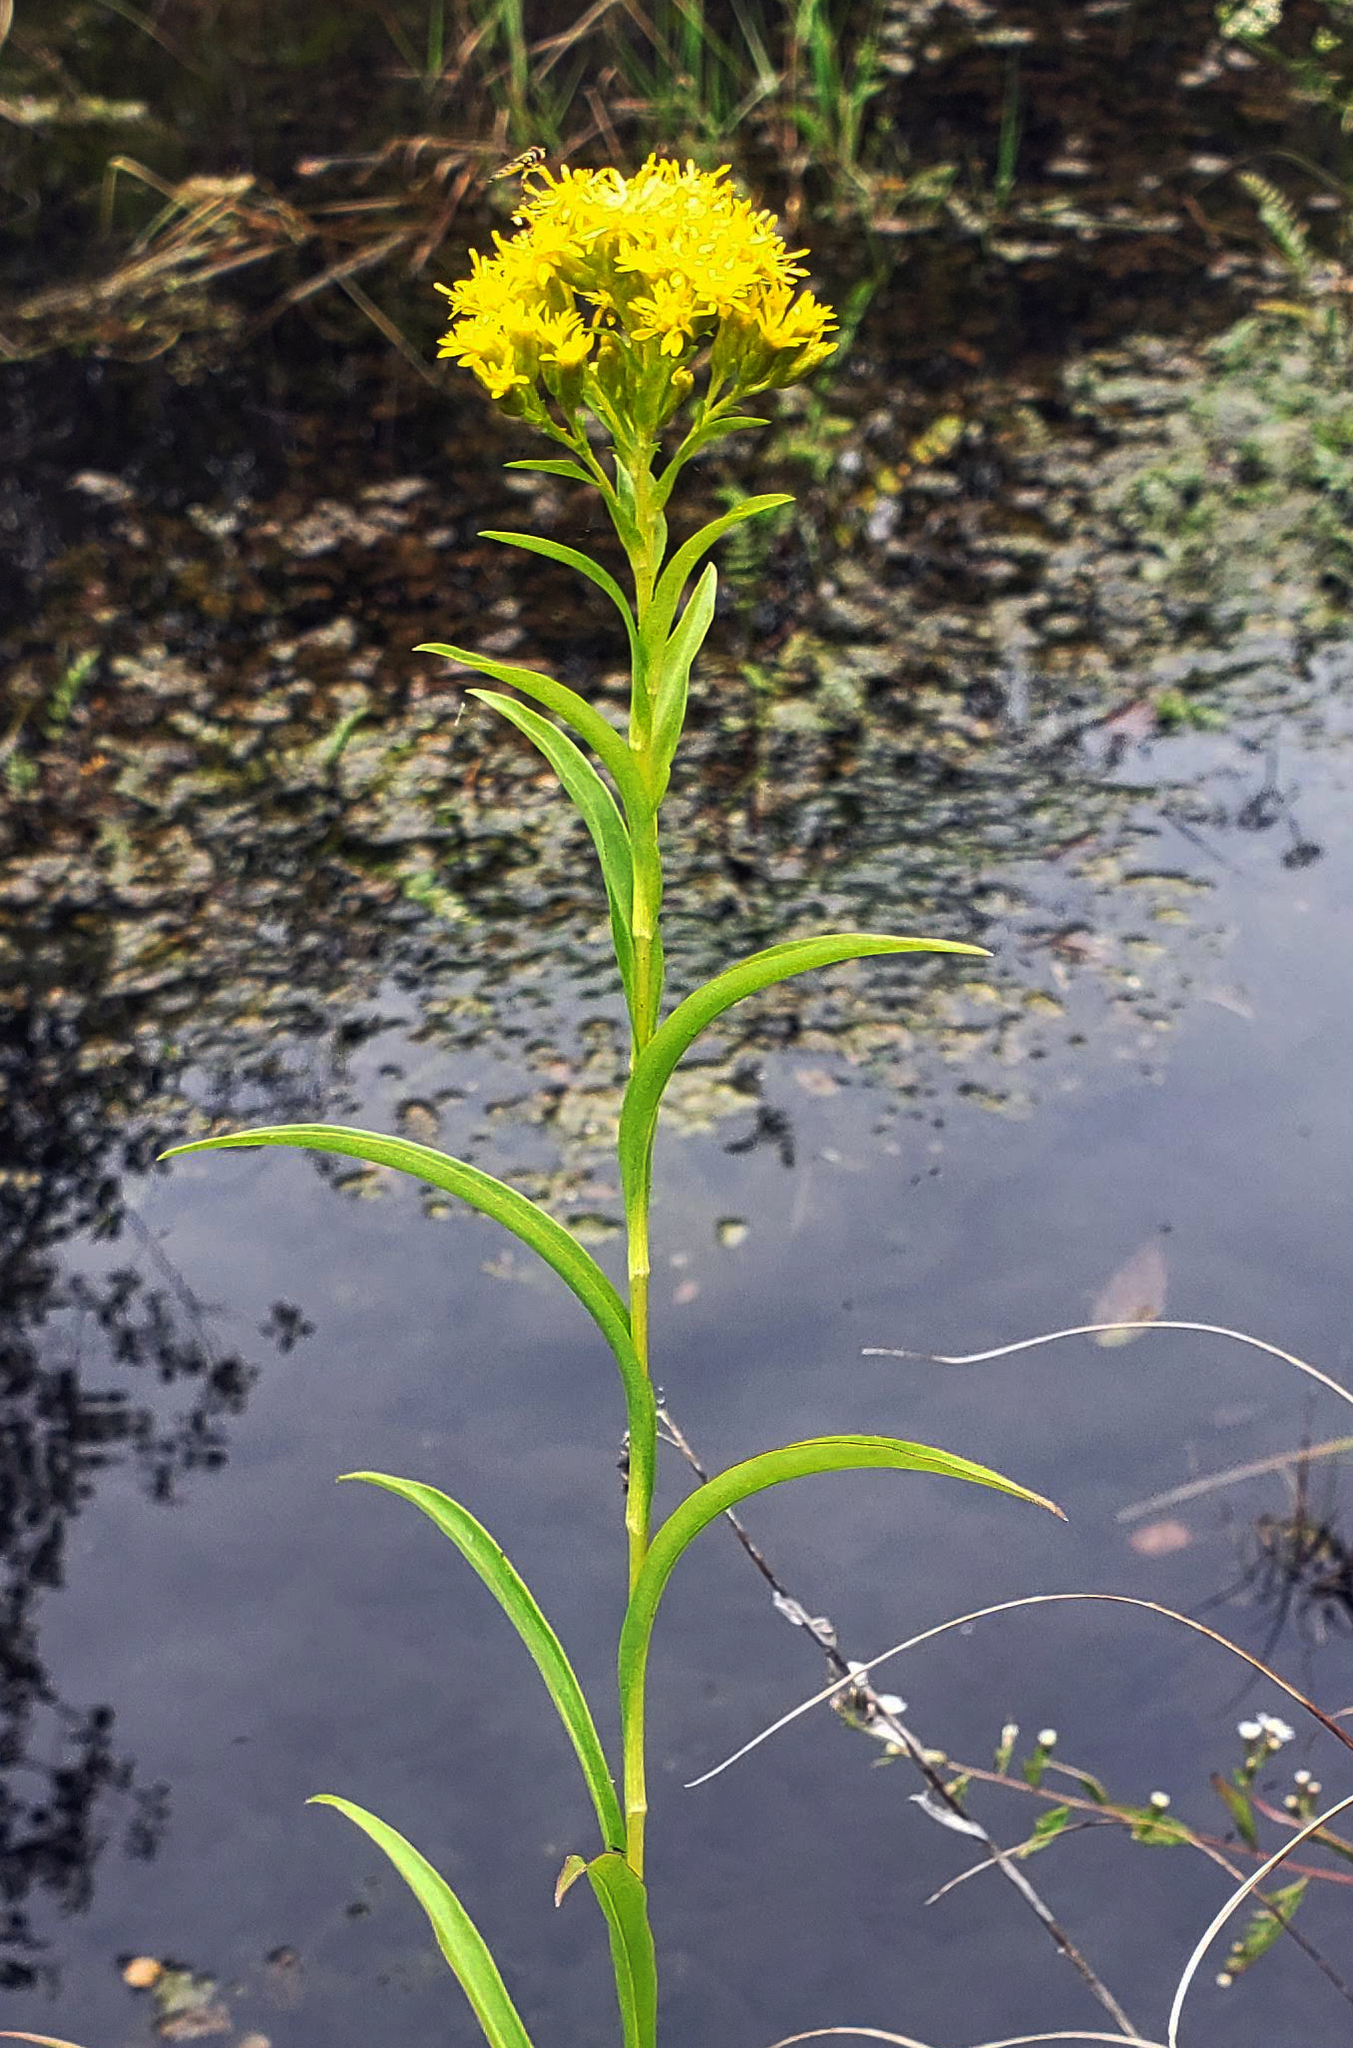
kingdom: Plantae
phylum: Tracheophyta
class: Magnoliopsida
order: Asterales
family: Asteraceae
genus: Solidago
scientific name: Solidago riddellii
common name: Riddell's goldenrod
